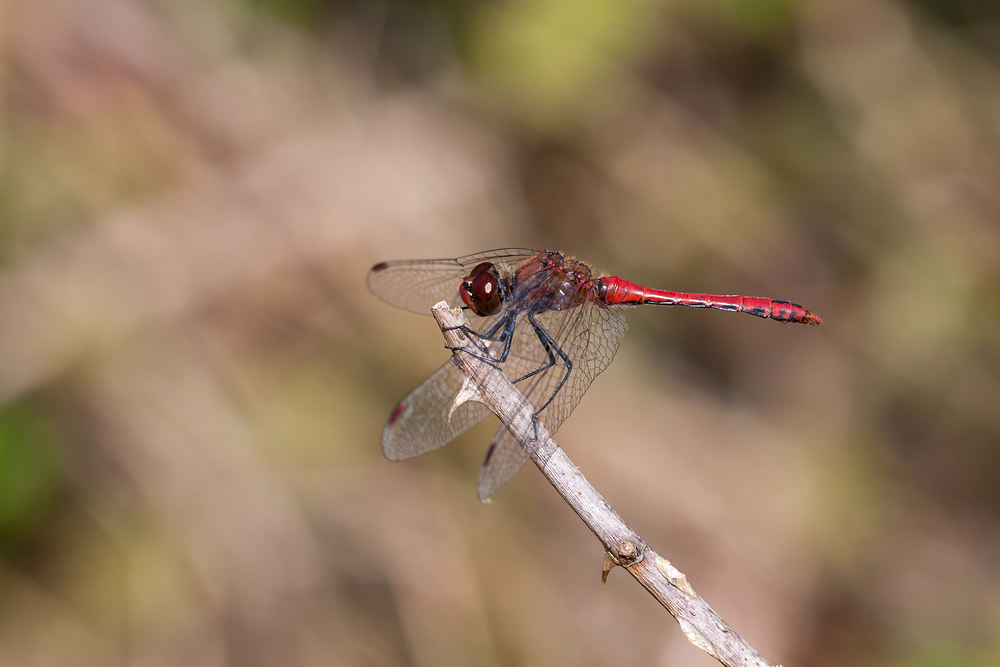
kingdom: Animalia
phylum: Arthropoda
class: Insecta
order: Odonata
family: Libellulidae
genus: Sympetrum
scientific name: Sympetrum sanguineum
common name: Ruddy darter
